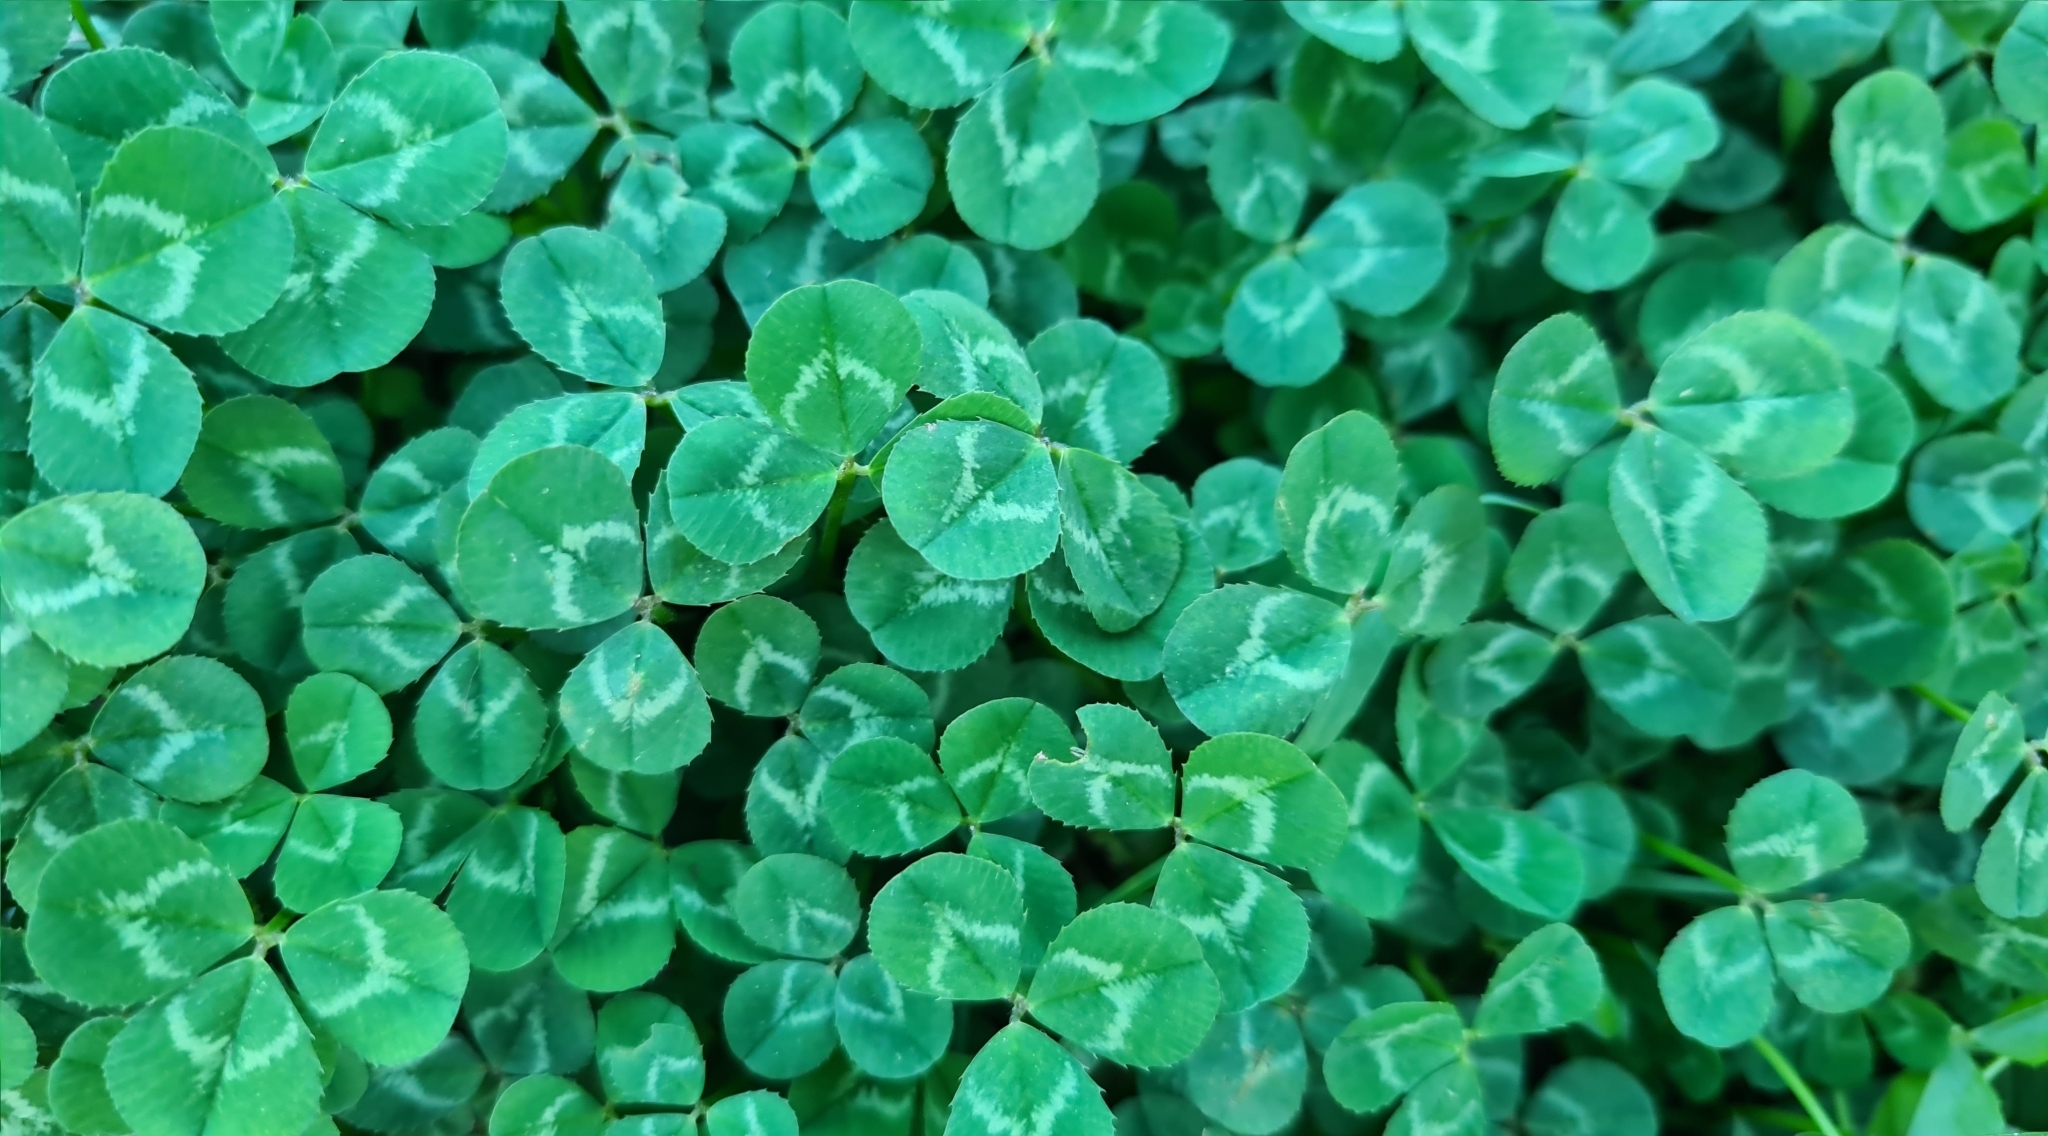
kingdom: Plantae
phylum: Tracheophyta
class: Magnoliopsida
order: Fabales
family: Fabaceae
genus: Trifolium
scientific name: Trifolium repens
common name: White clover
